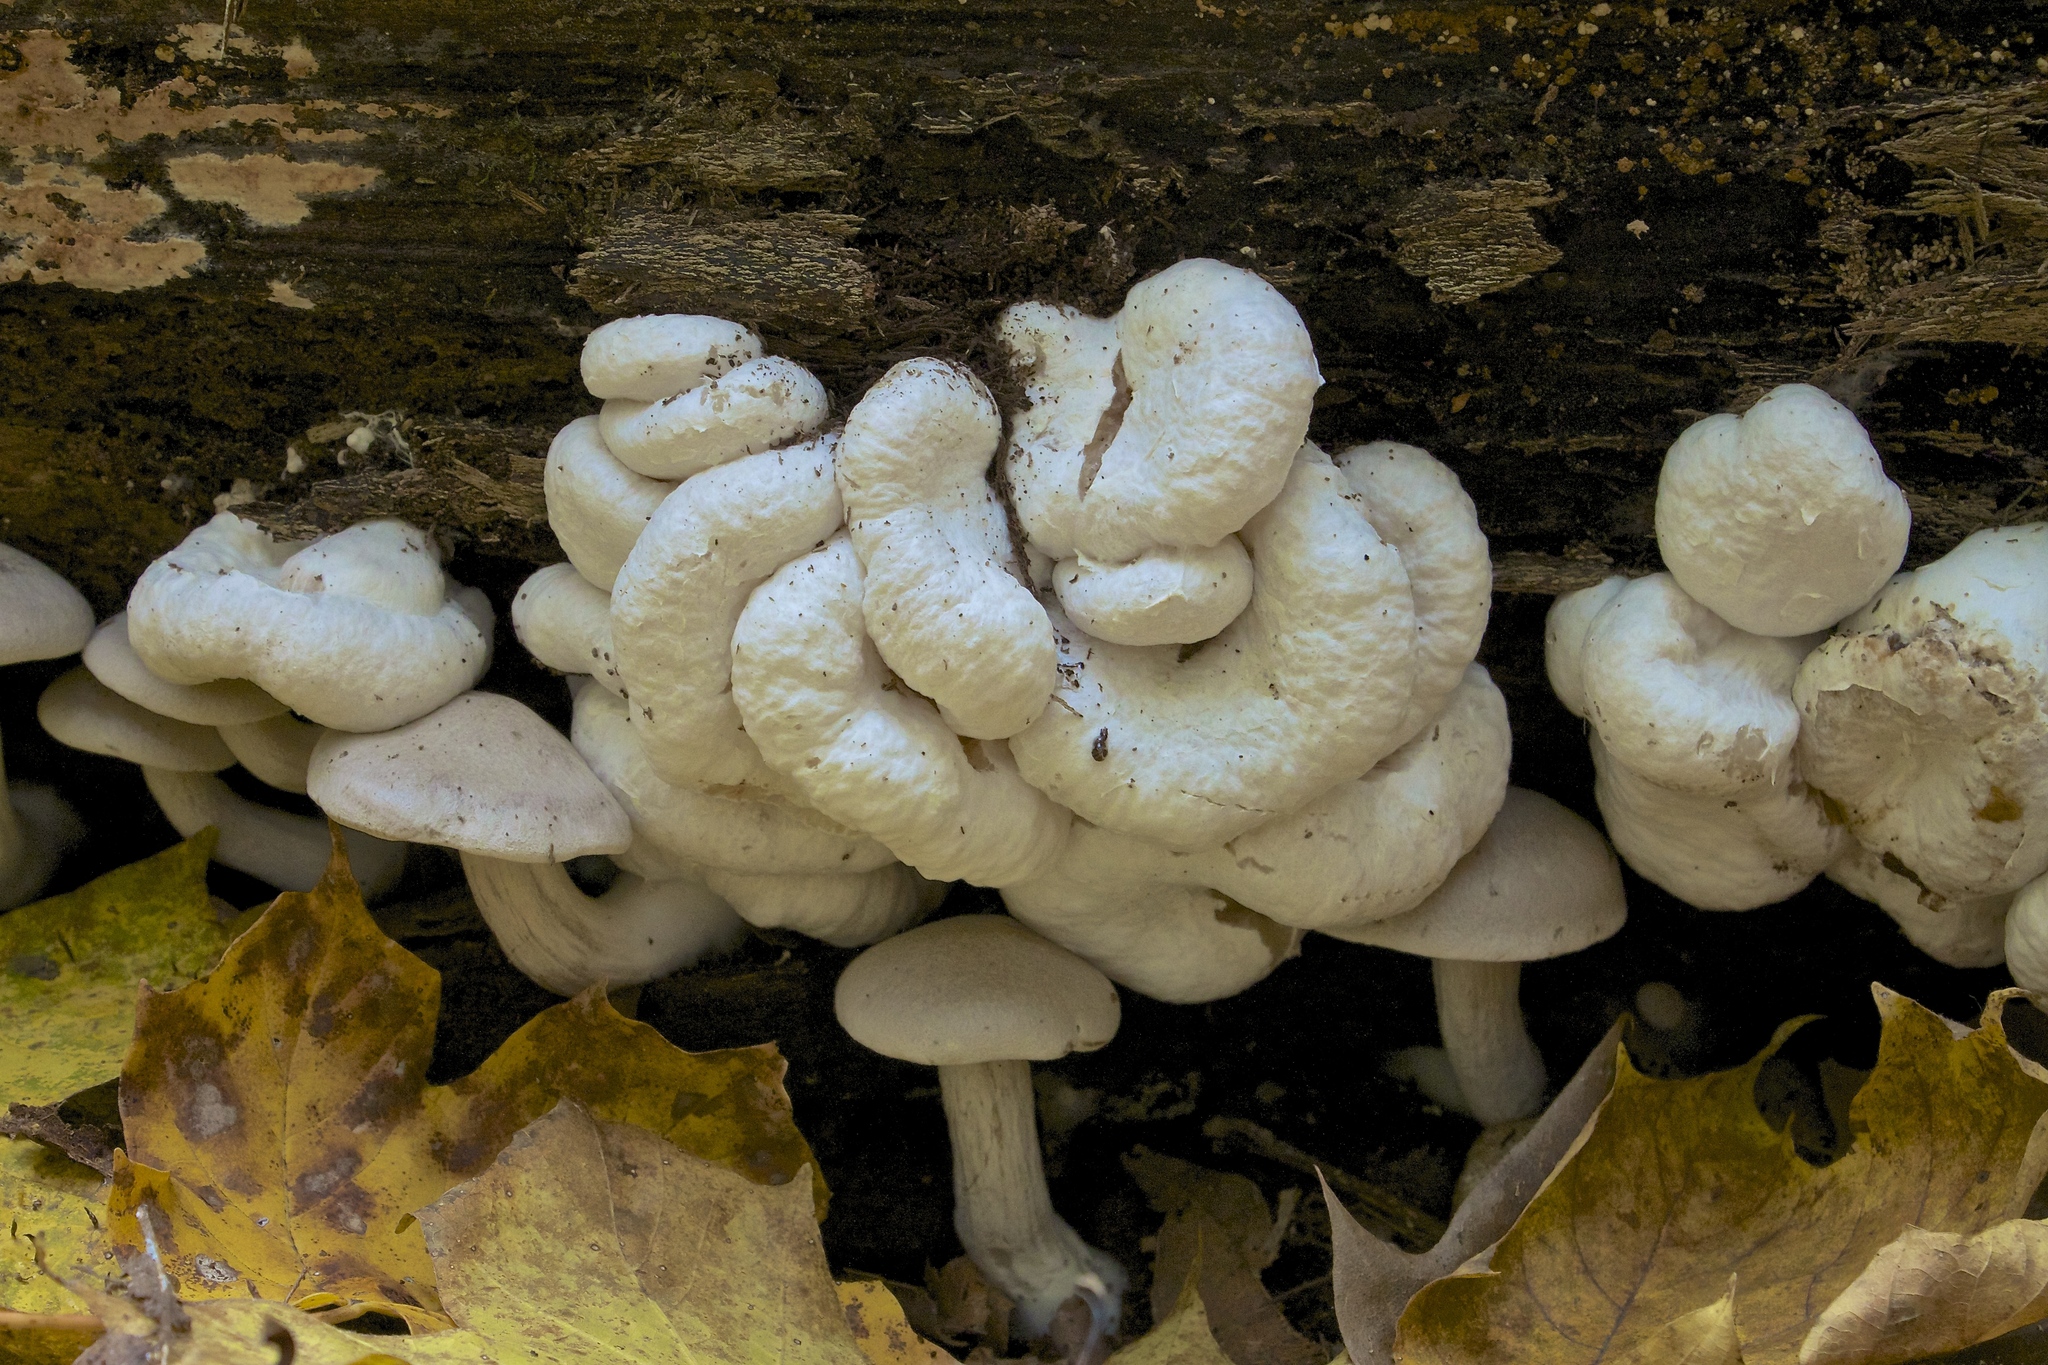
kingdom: Fungi
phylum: Basidiomycota
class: Agaricomycetes
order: Agaricales
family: Entolomataceae
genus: Entoloma
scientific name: Entoloma abortivum
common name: Aborted entoloma
